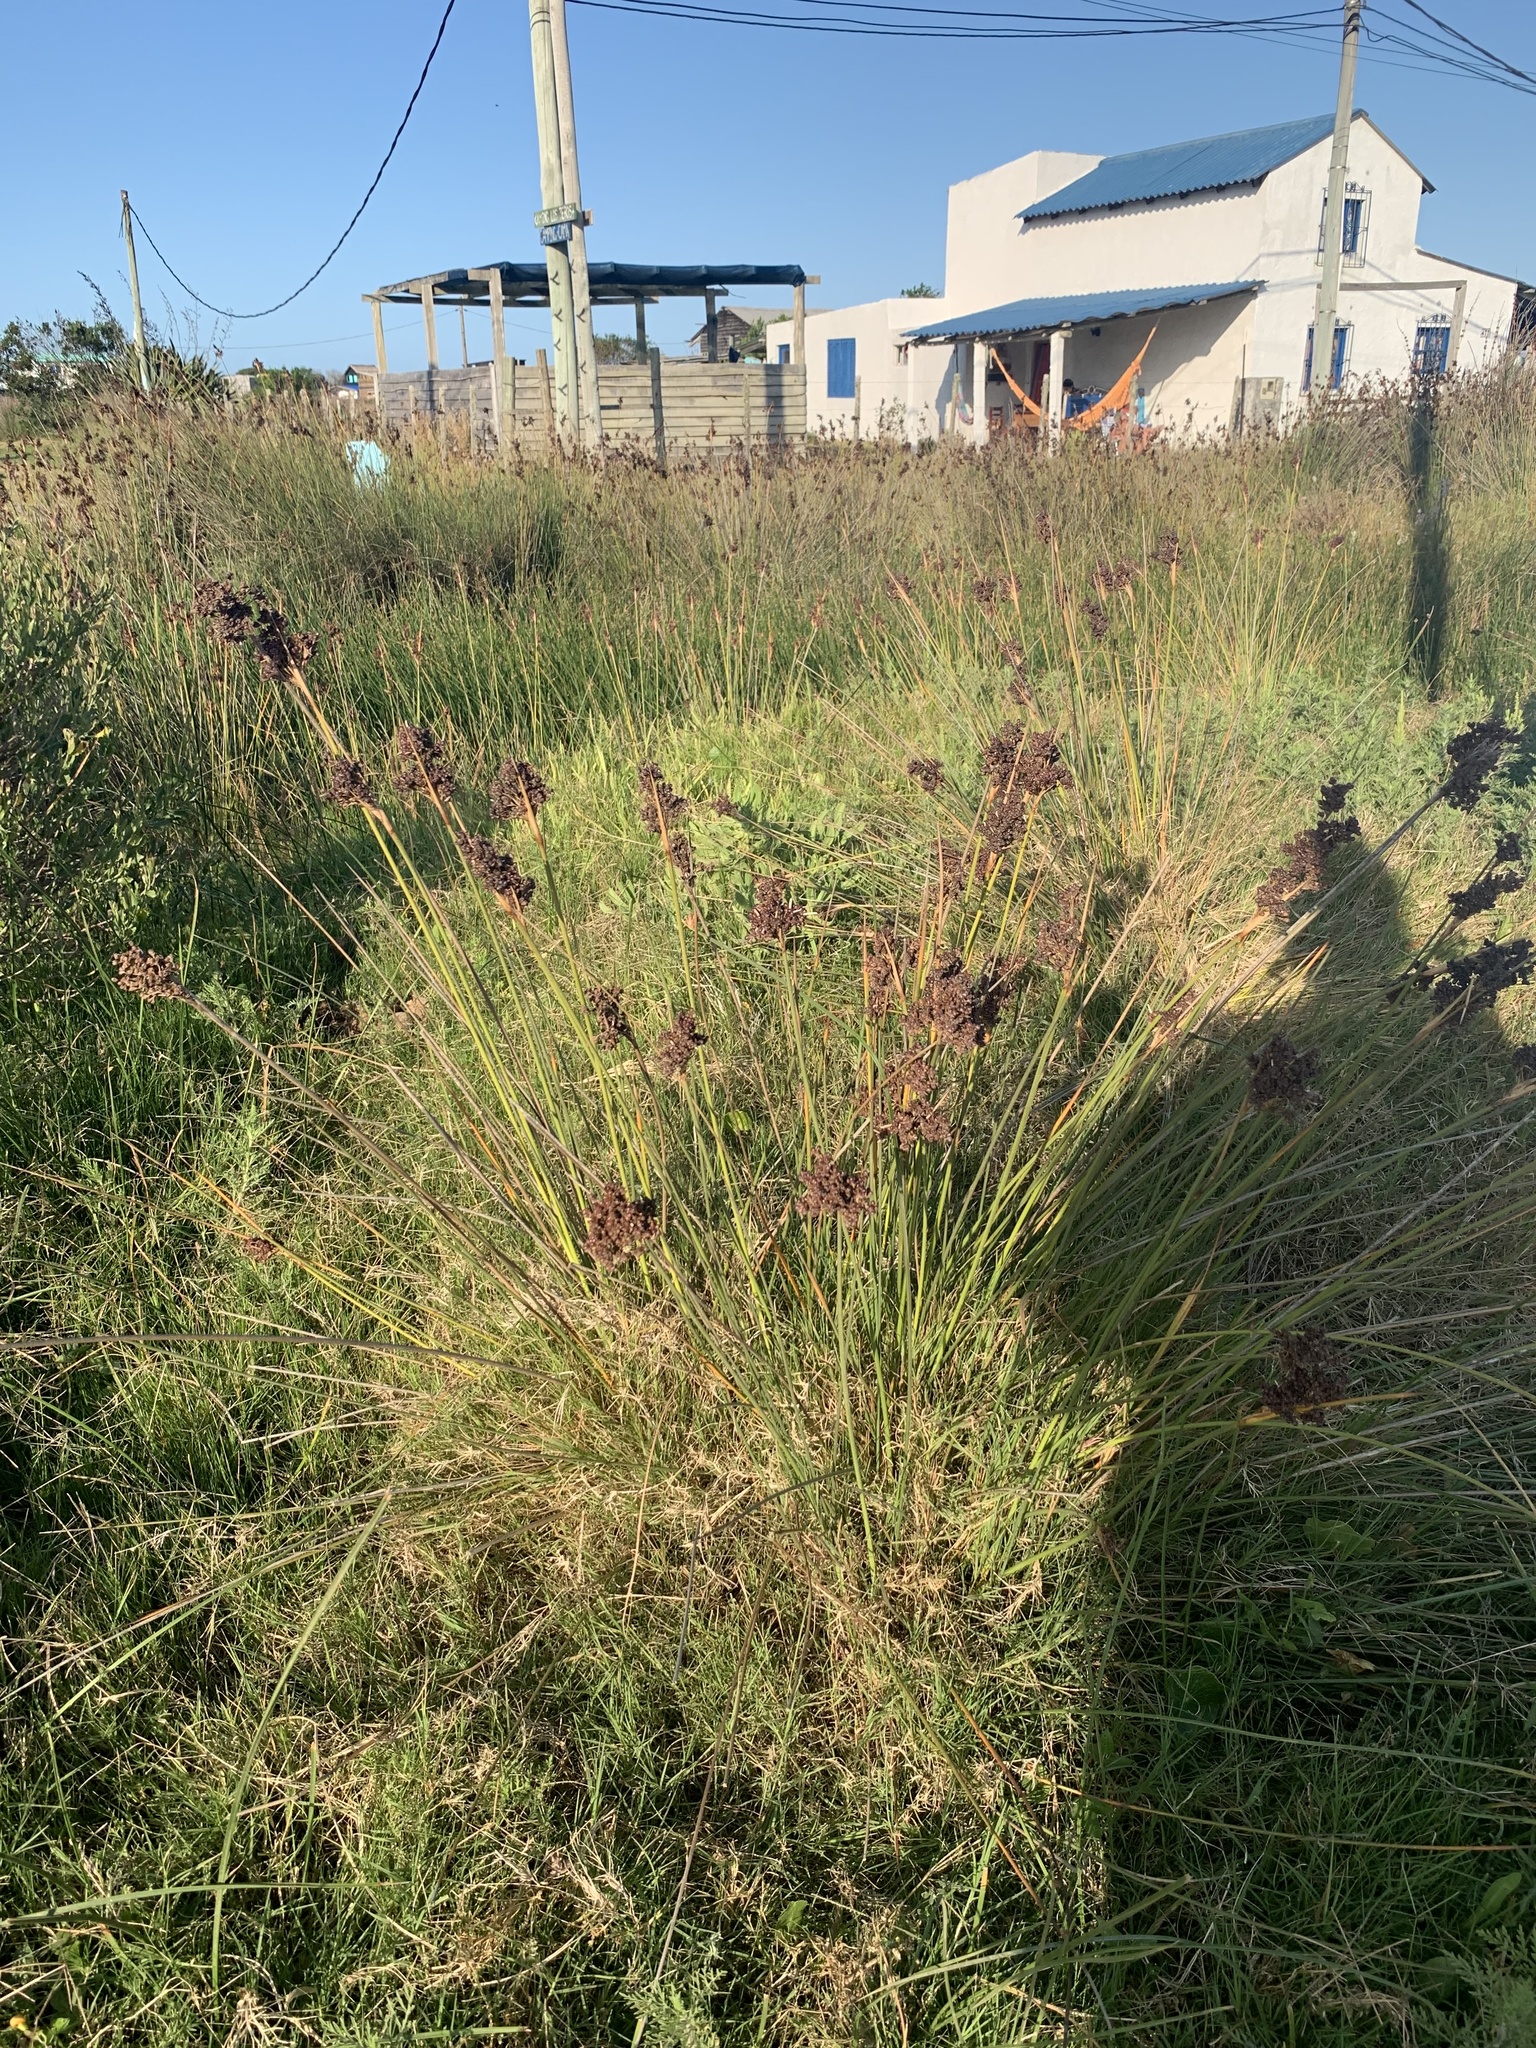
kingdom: Plantae
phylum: Tracheophyta
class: Liliopsida
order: Poales
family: Juncaceae
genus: Juncus
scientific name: Juncus acutus
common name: Sharp rush
